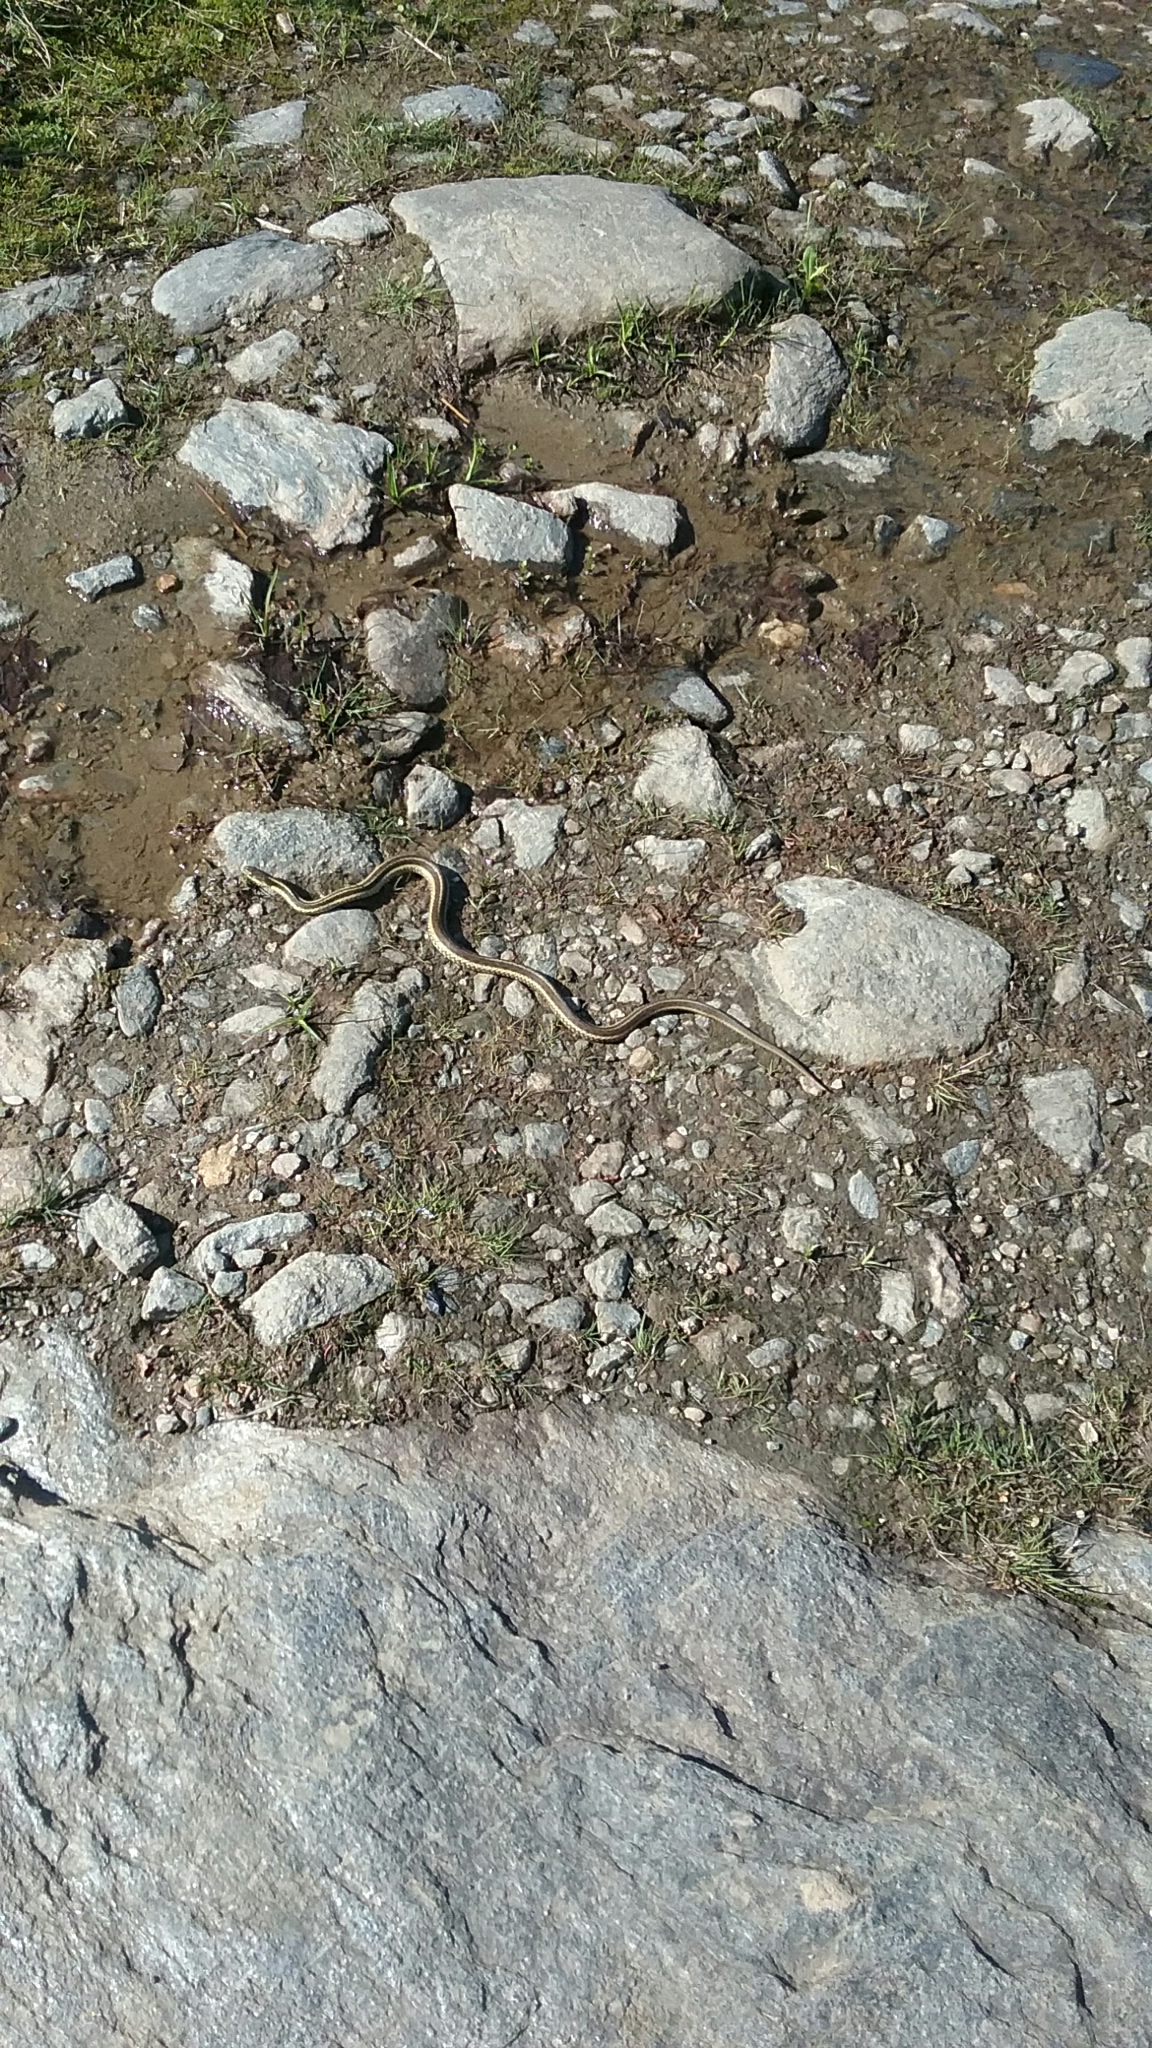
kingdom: Animalia
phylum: Chordata
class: Squamata
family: Colubridae
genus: Thamnophis
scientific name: Thamnophis sirtalis
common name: Common garter snake
